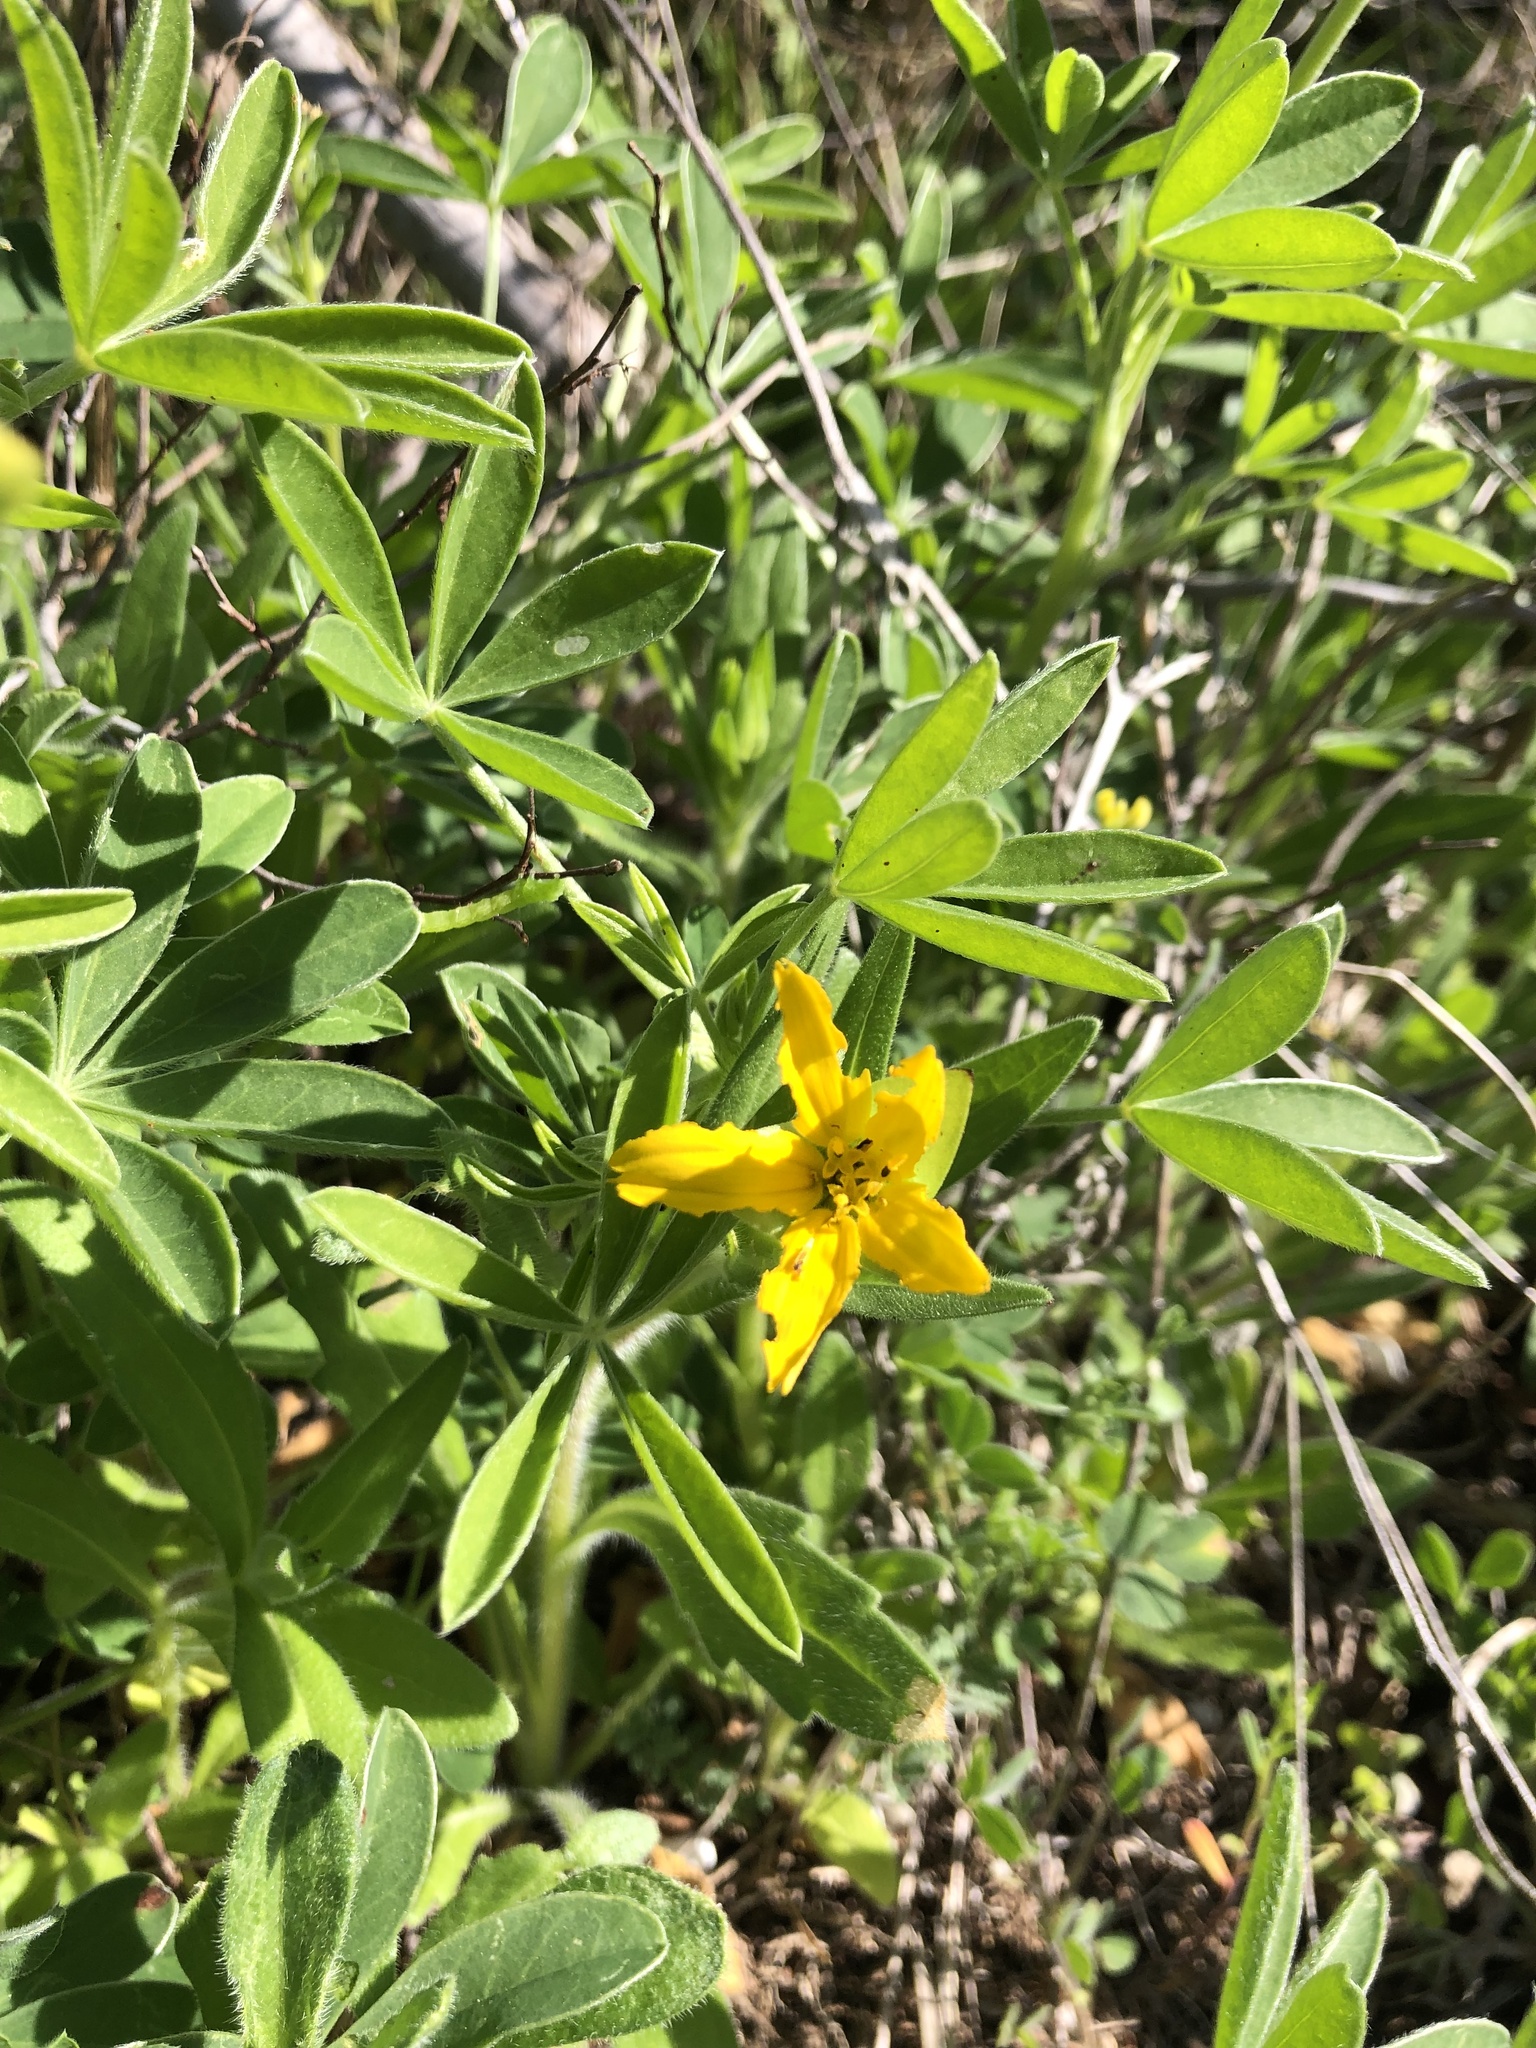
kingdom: Plantae
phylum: Tracheophyta
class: Magnoliopsida
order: Asterales
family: Asteraceae
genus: Lindheimera
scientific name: Lindheimera texana
